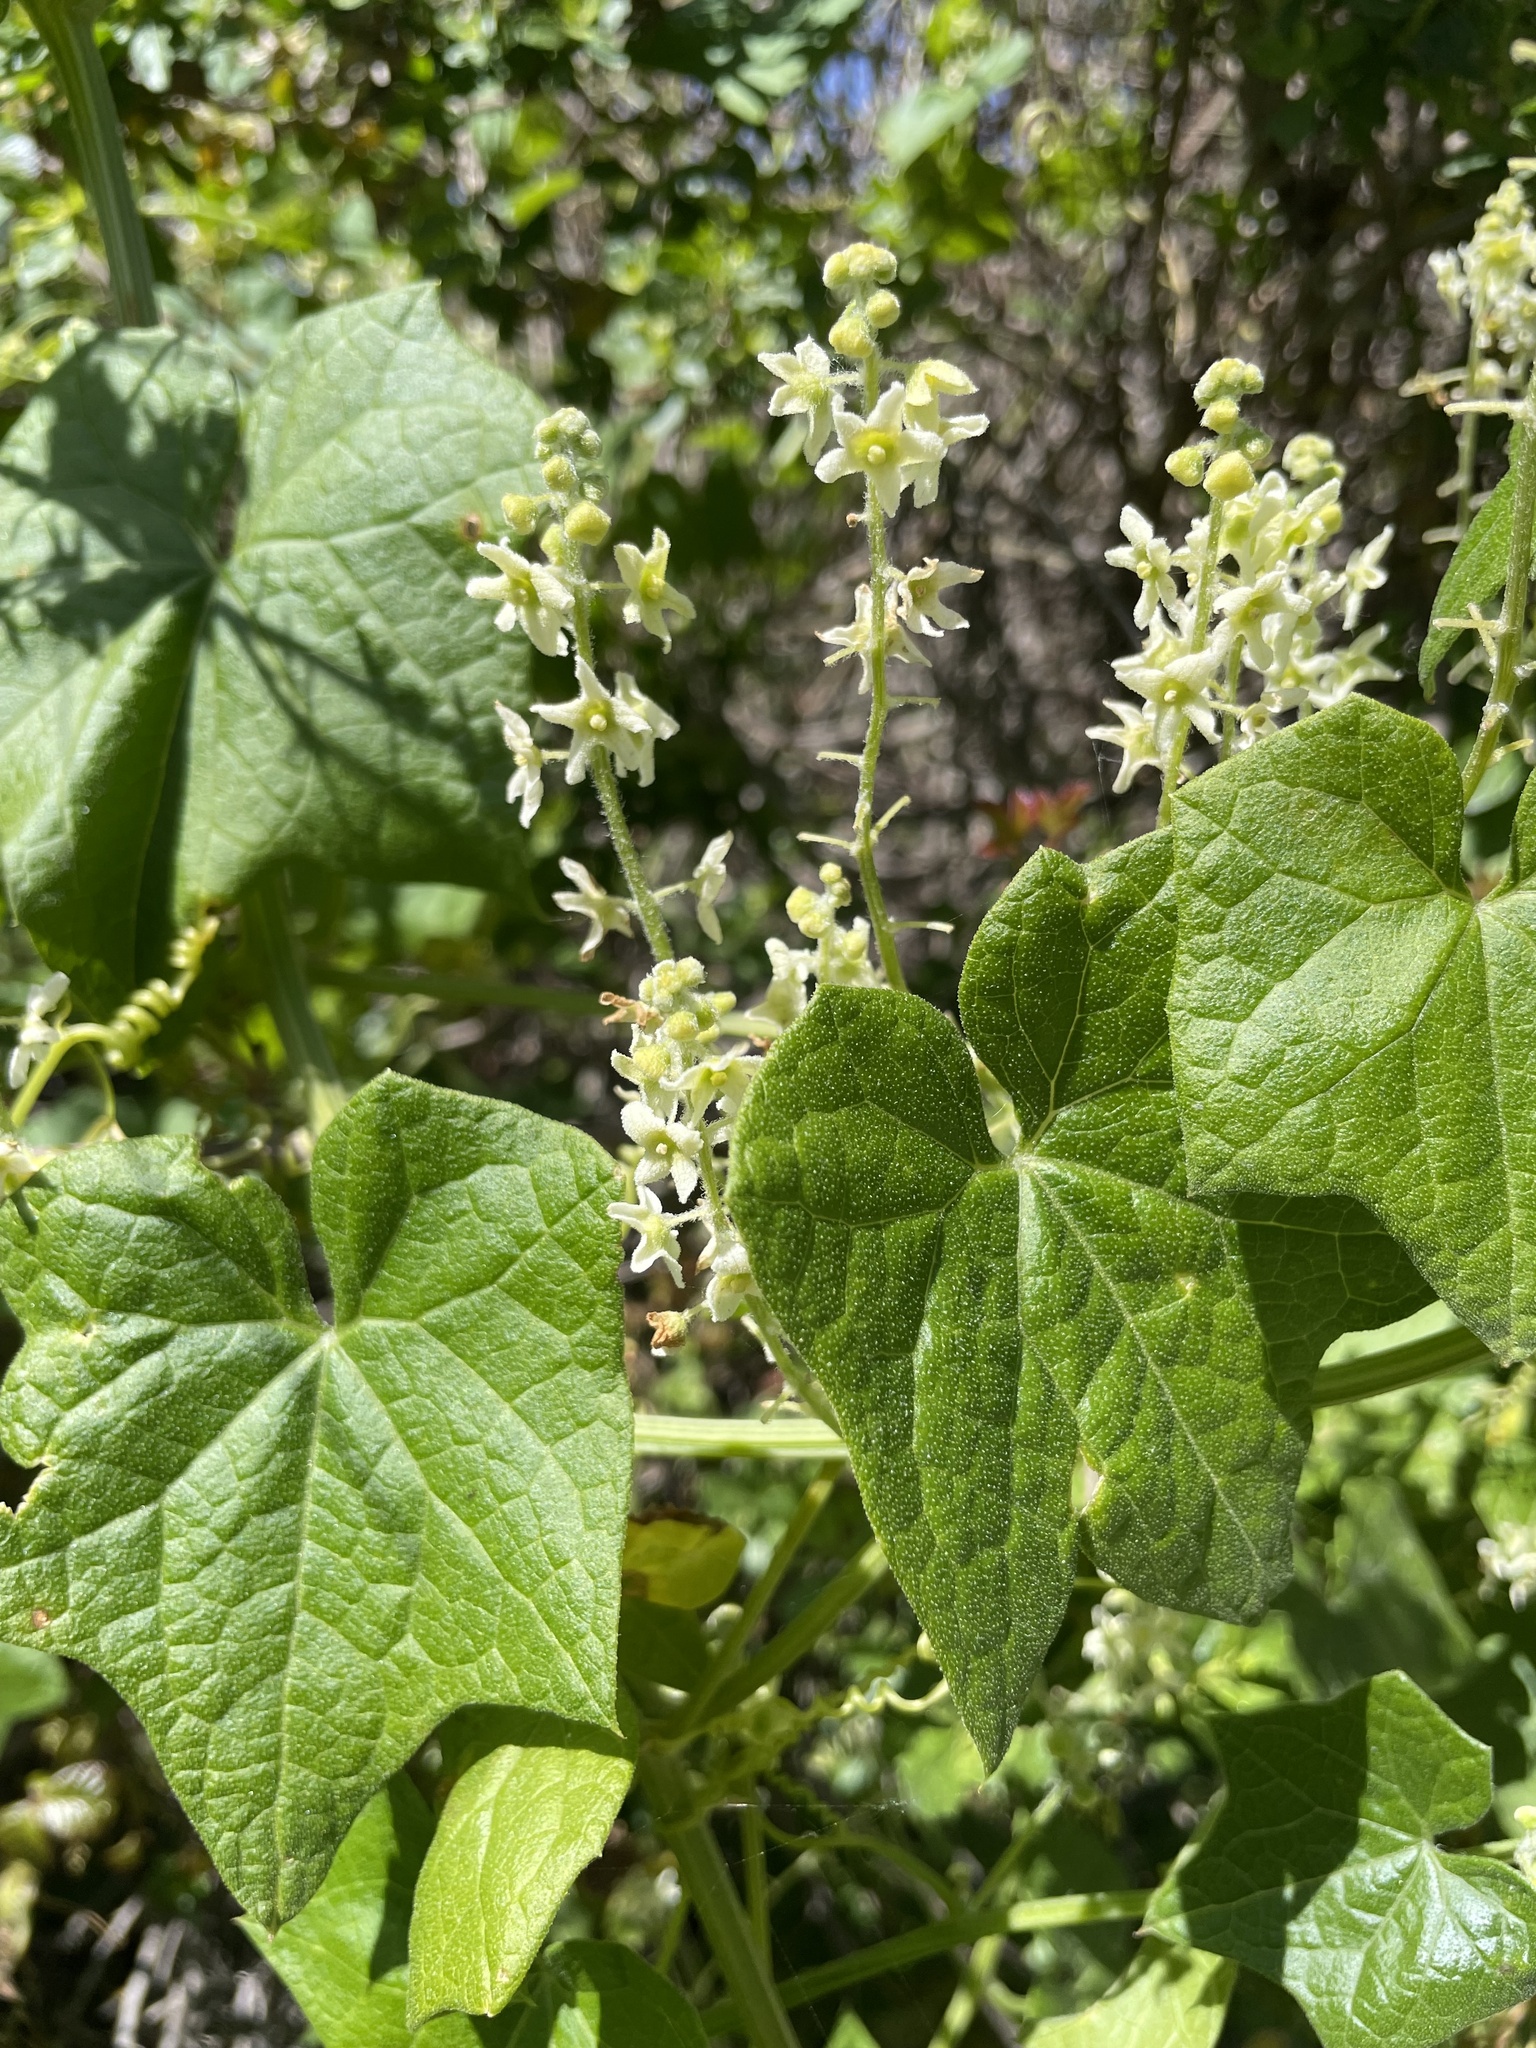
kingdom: Plantae
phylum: Tracheophyta
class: Magnoliopsida
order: Cucurbitales
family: Cucurbitaceae
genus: Marah
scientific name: Marah fabacea
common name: California manroot
